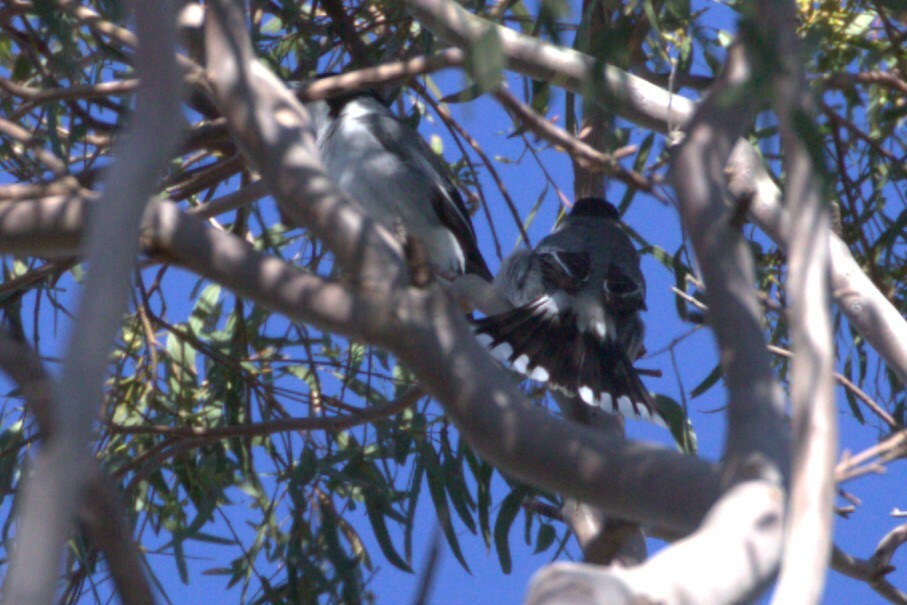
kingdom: Animalia
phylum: Chordata
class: Aves
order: Passeriformes
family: Cracticidae
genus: Cracticus
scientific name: Cracticus torquatus
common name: Grey butcherbird
